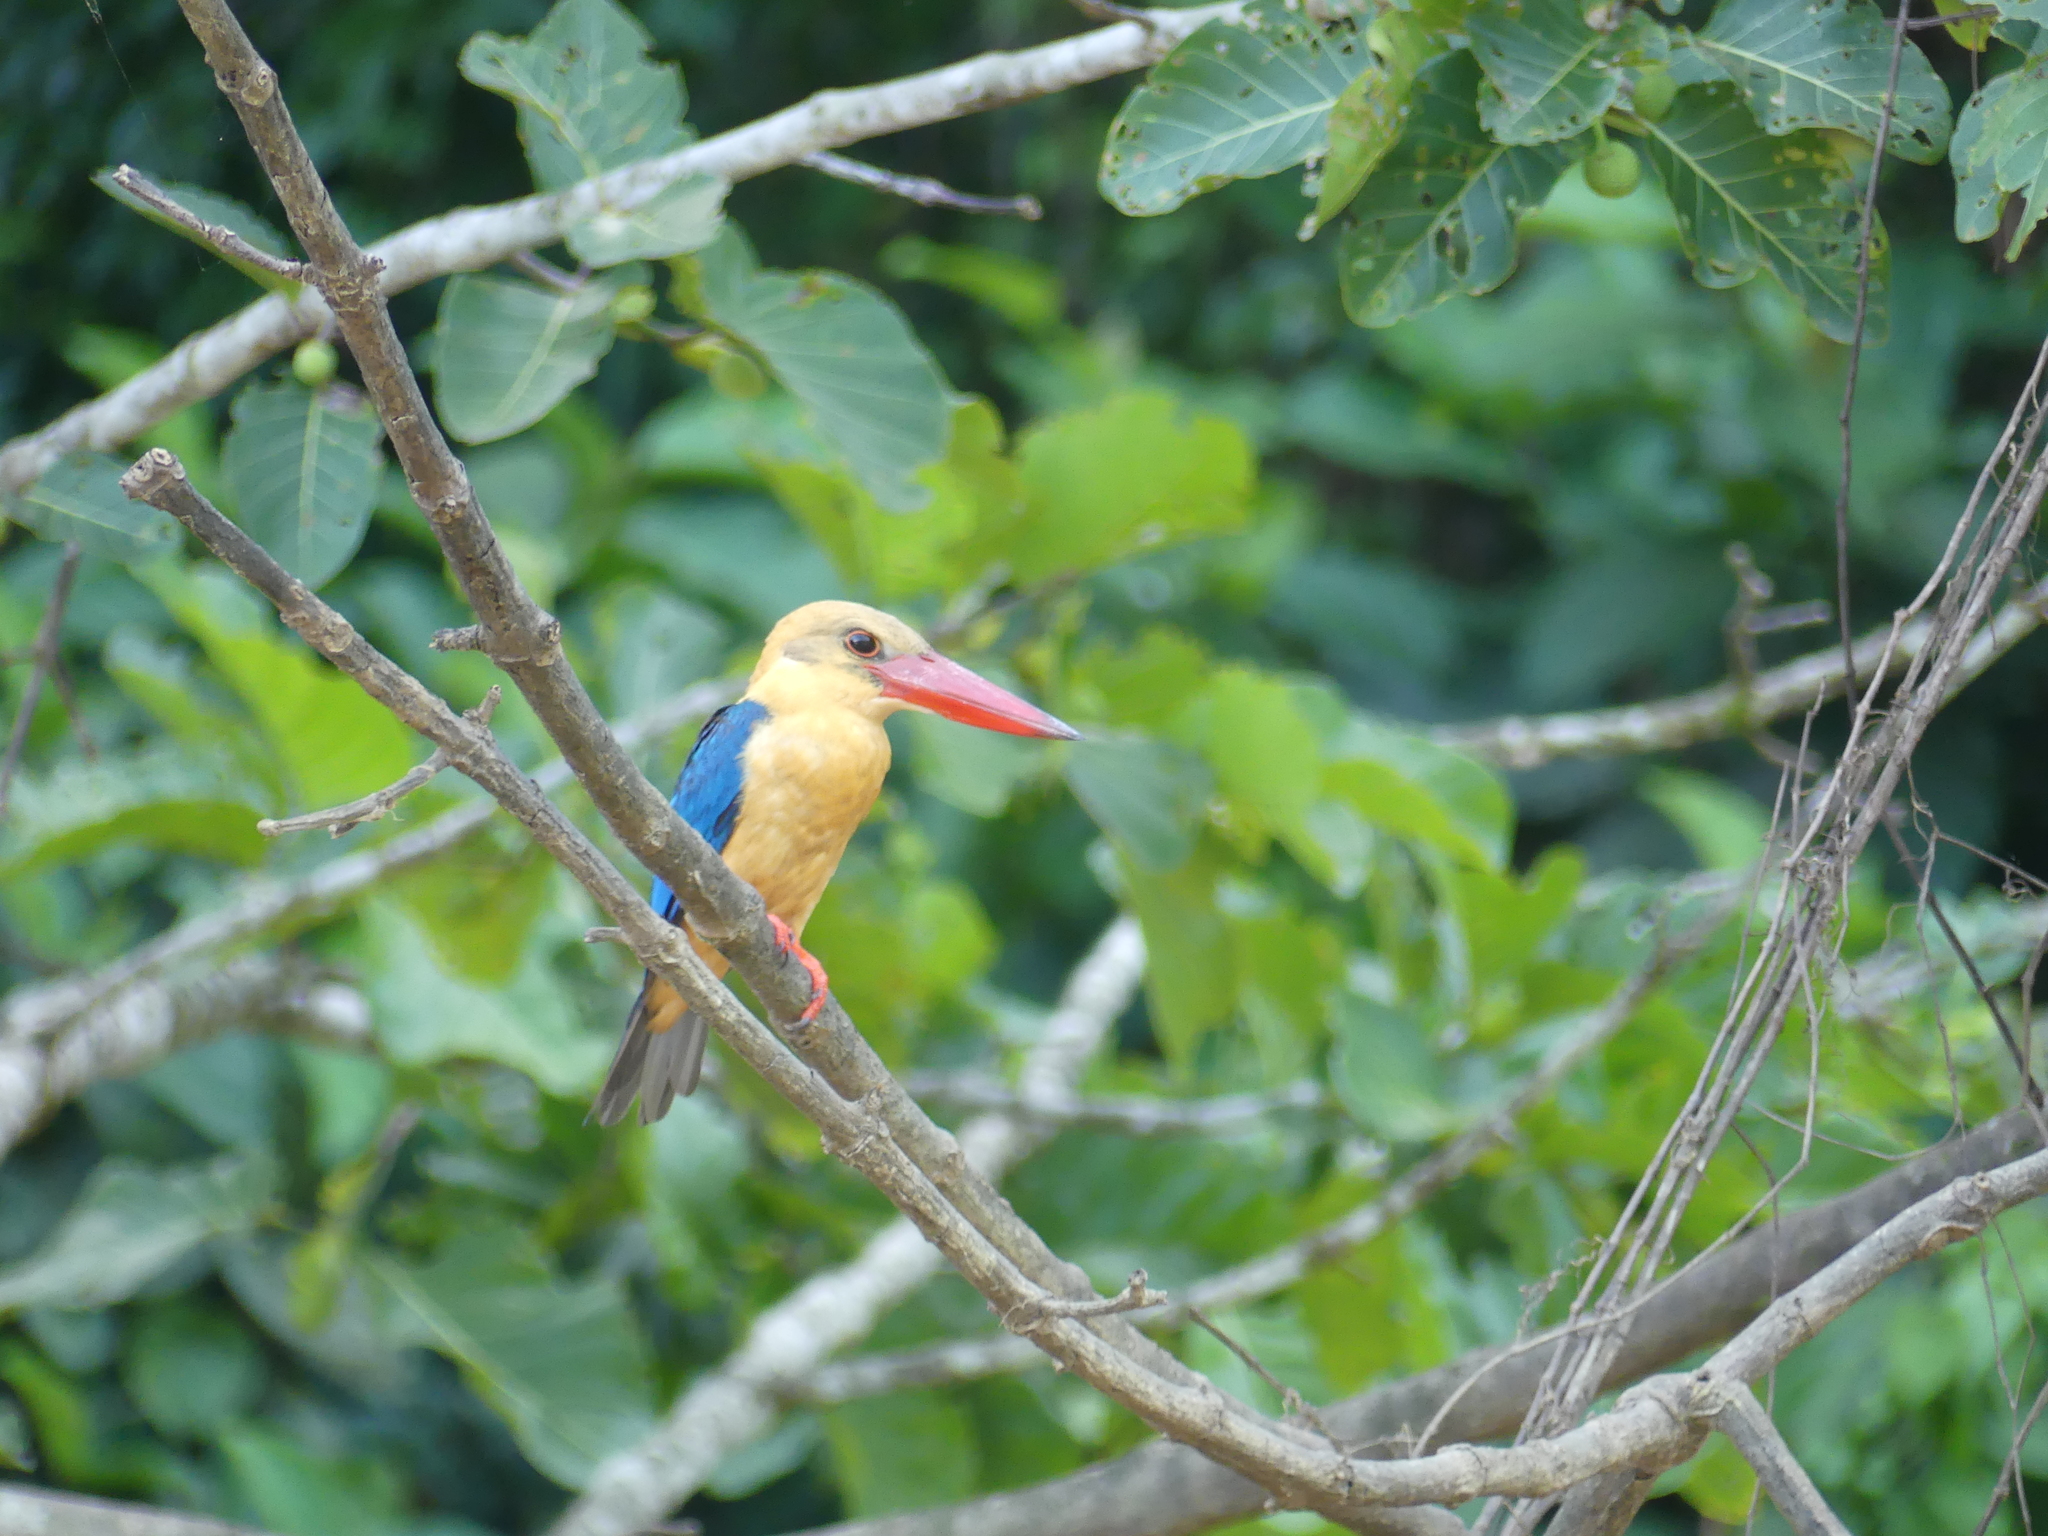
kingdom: Animalia
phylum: Chordata
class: Aves
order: Coraciiformes
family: Alcedinidae
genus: Pelargopsis
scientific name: Pelargopsis capensis
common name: Stork-billed kingfisher
